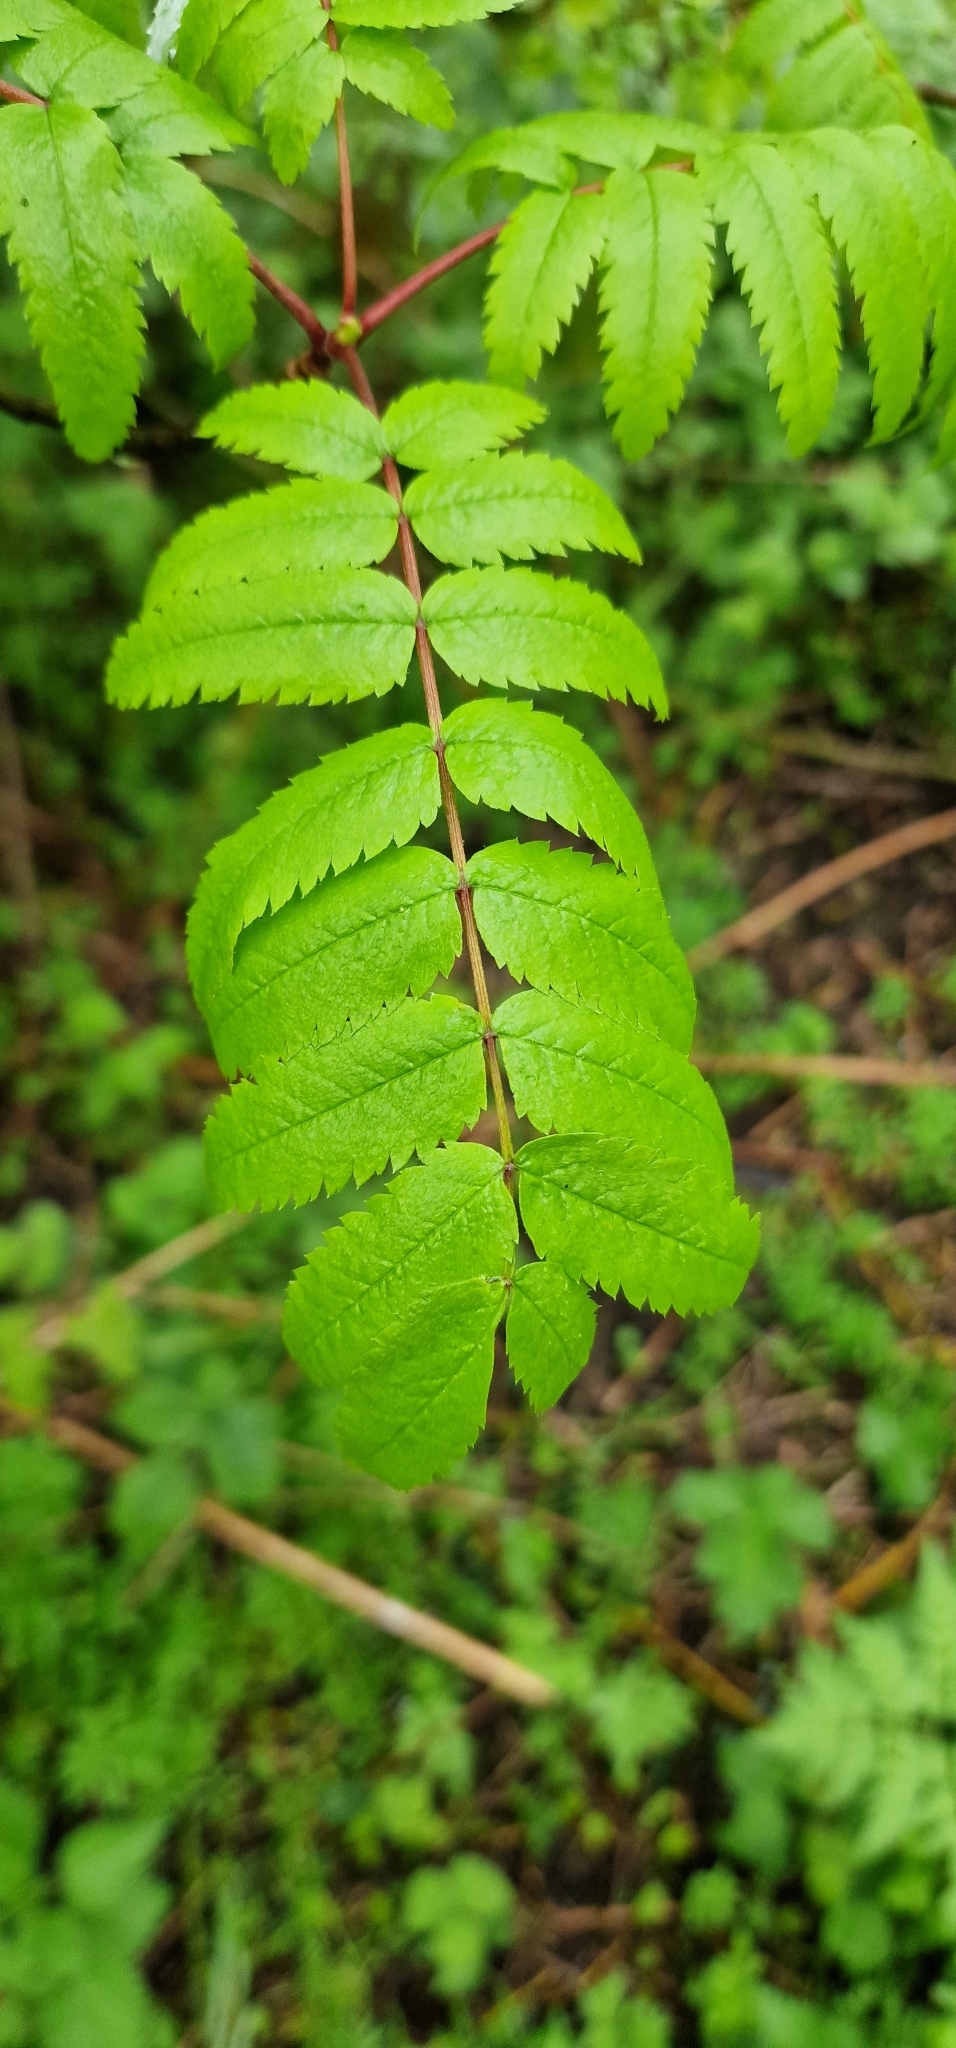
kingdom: Plantae
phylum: Tracheophyta
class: Magnoliopsida
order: Rosales
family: Rosaceae
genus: Sorbus
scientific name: Sorbus aucuparia
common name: Rowan
